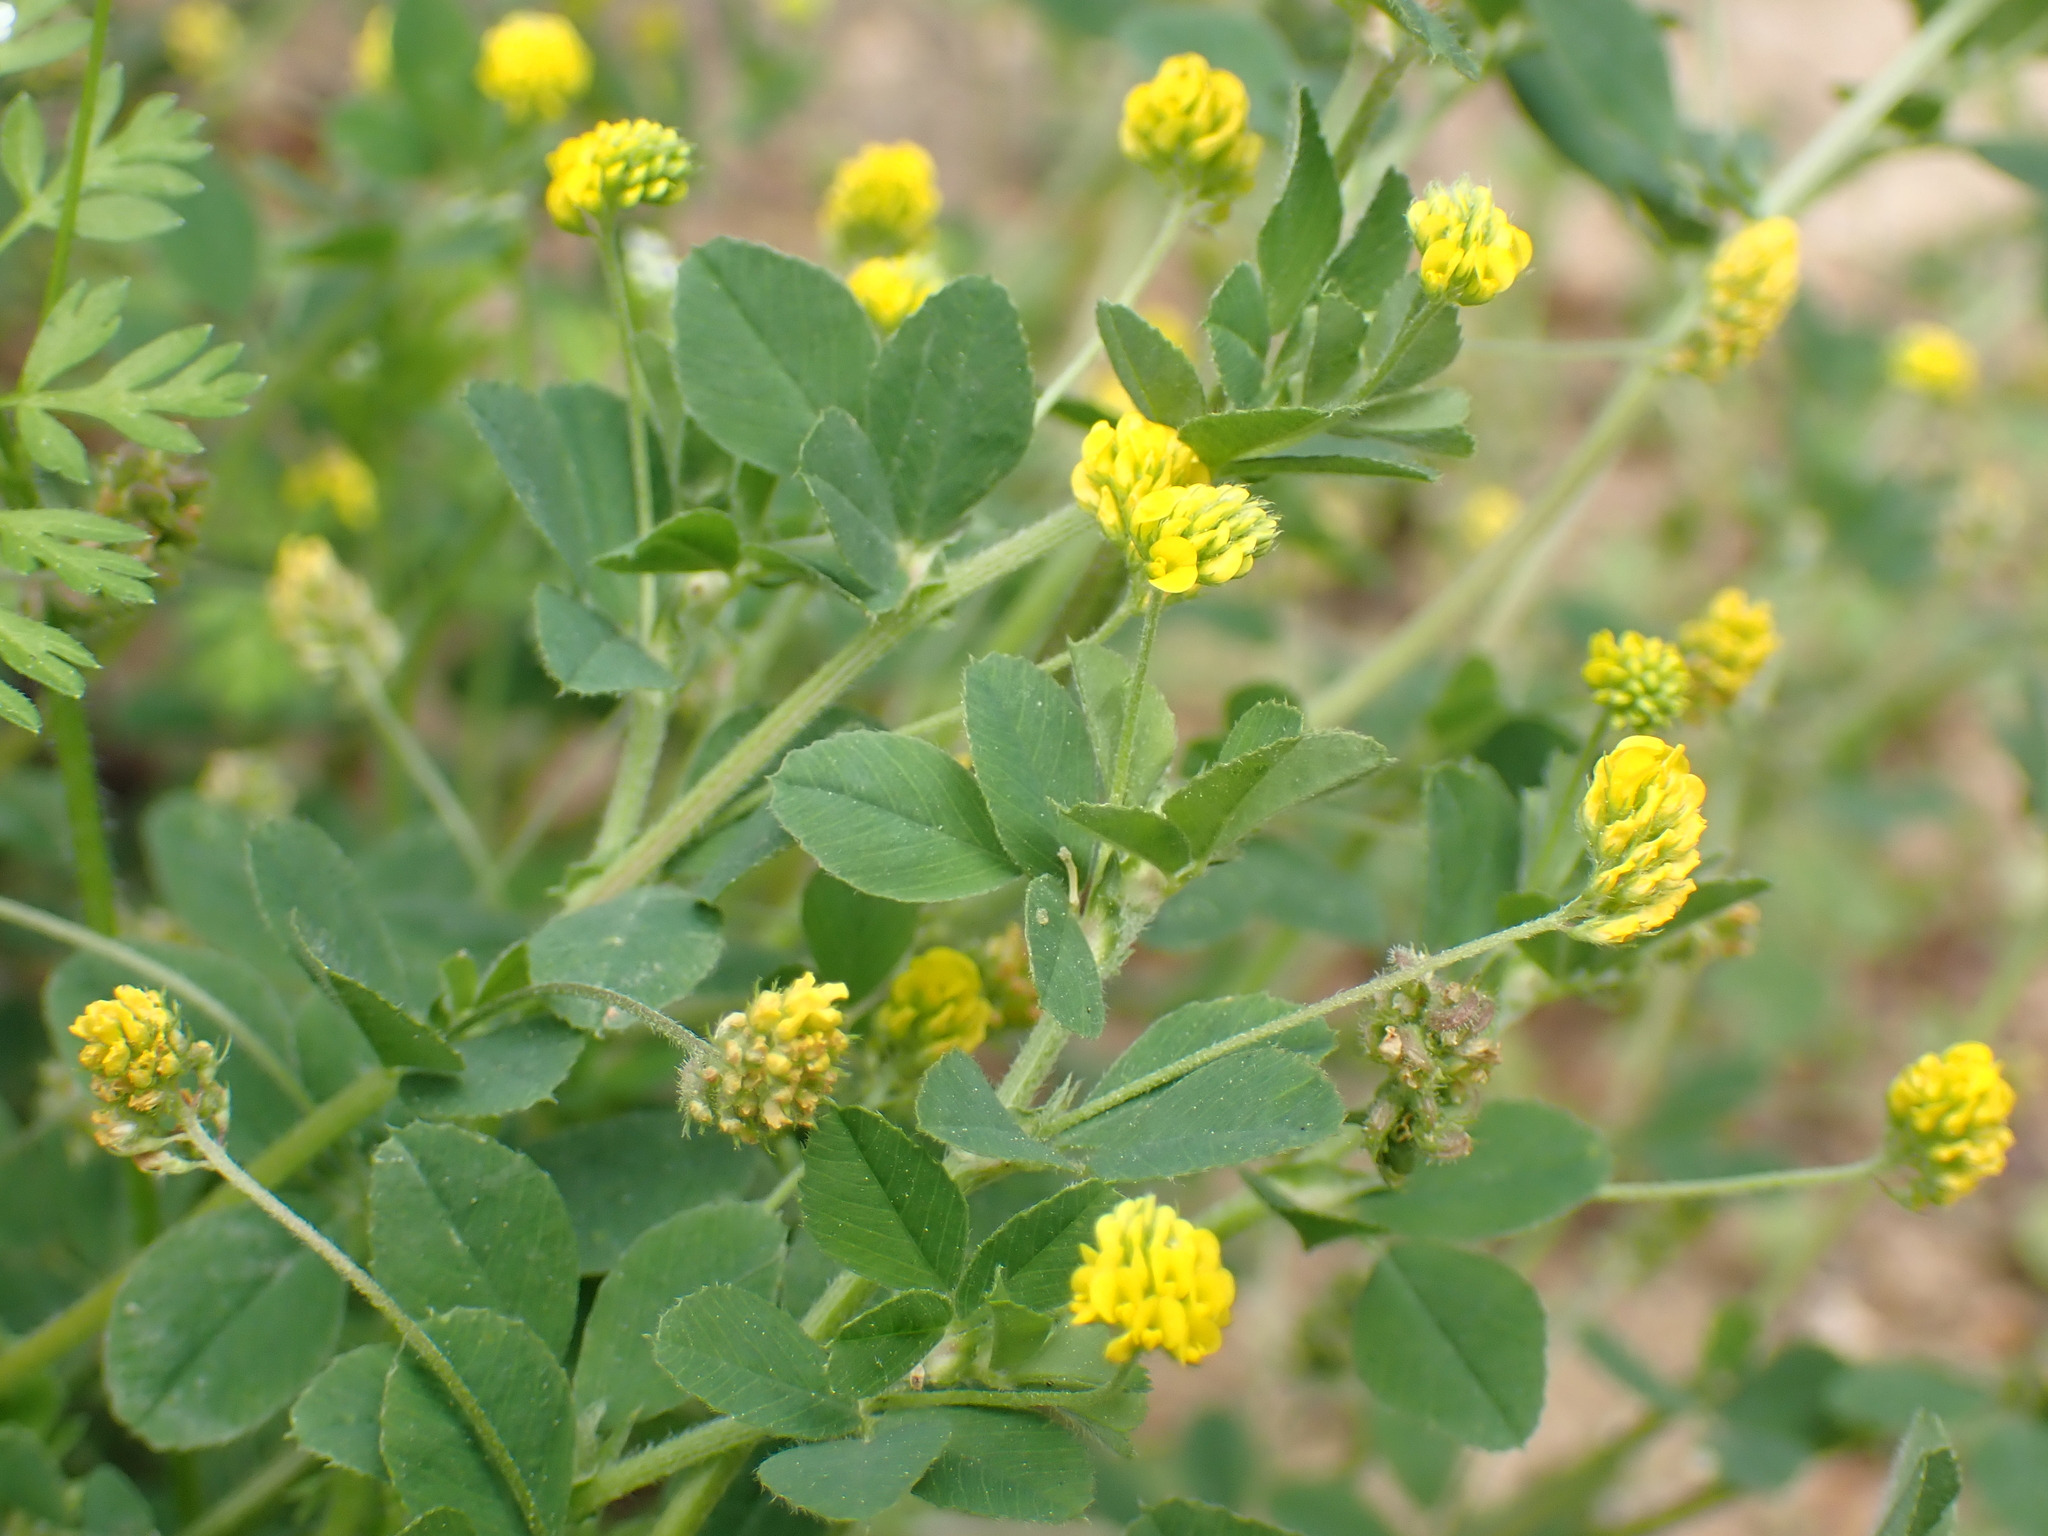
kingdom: Plantae
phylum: Tracheophyta
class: Magnoliopsida
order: Fabales
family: Fabaceae
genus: Medicago
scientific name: Medicago lupulina
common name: Black medick
